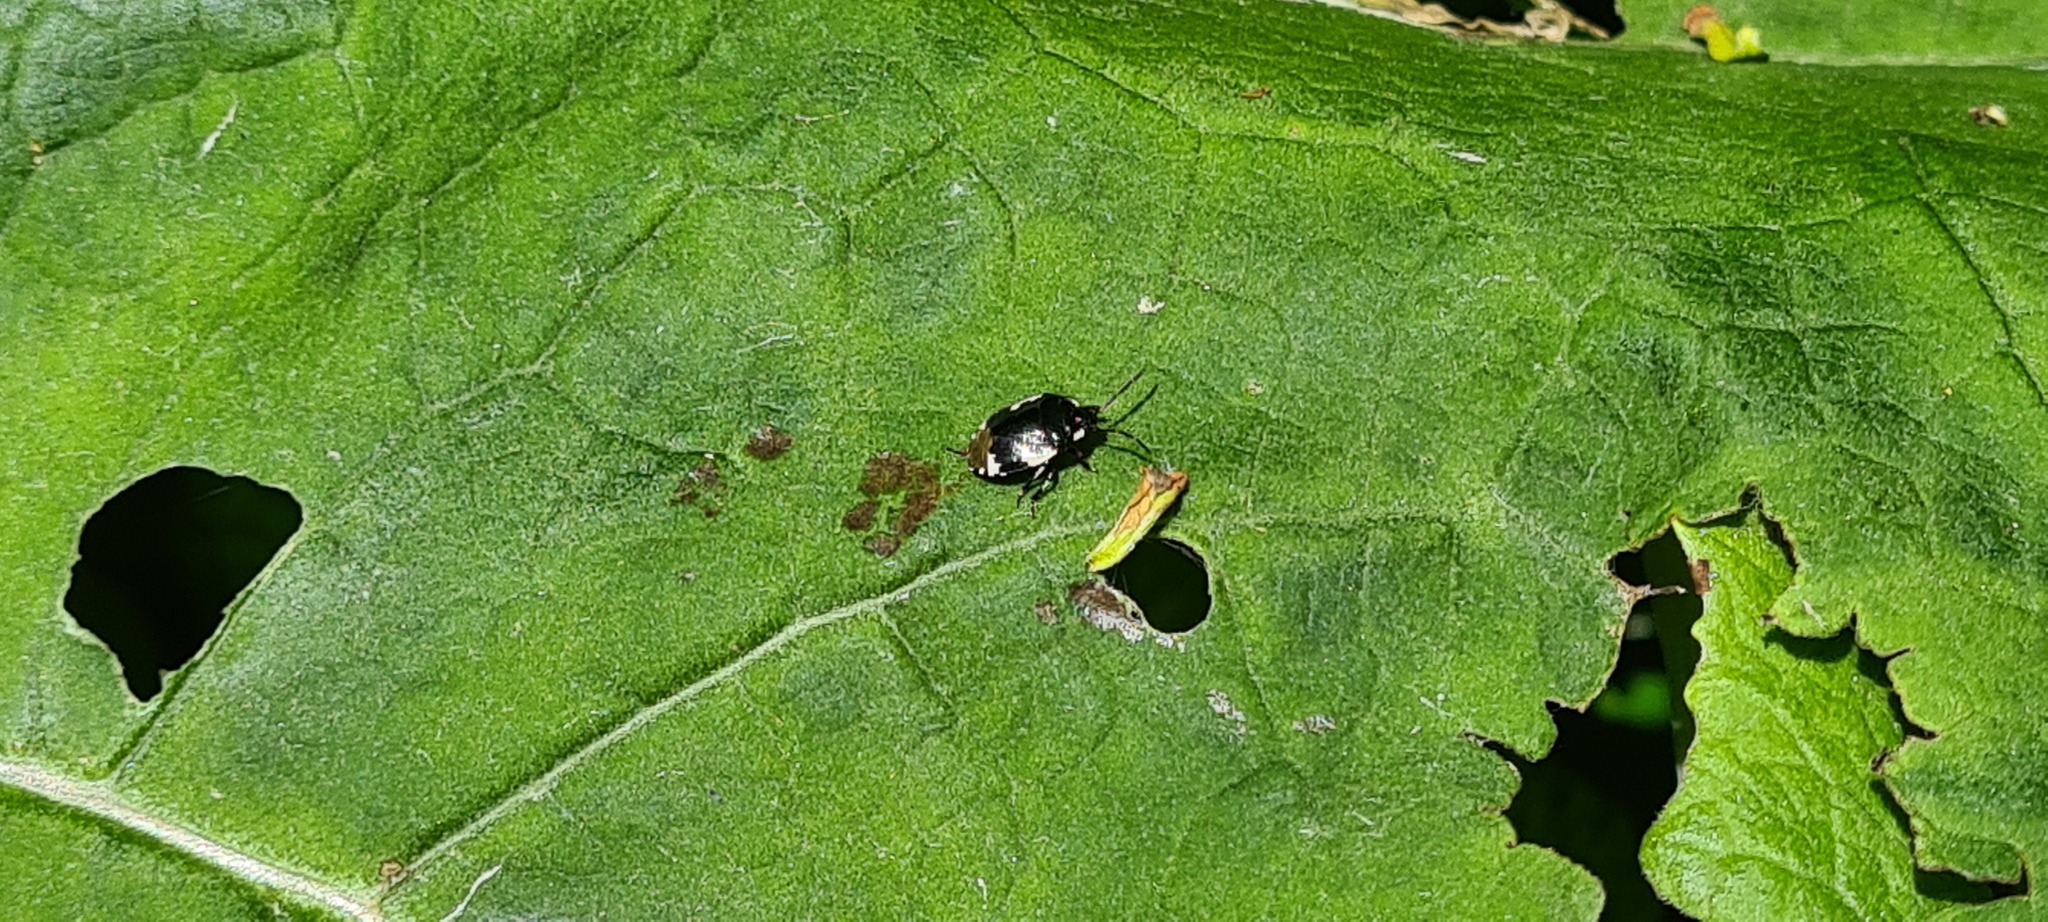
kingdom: Animalia
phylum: Arthropoda
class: Insecta
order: Hemiptera
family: Cydnidae
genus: Tritomegas
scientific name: Tritomegas bicolor
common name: Pied shieldbug
